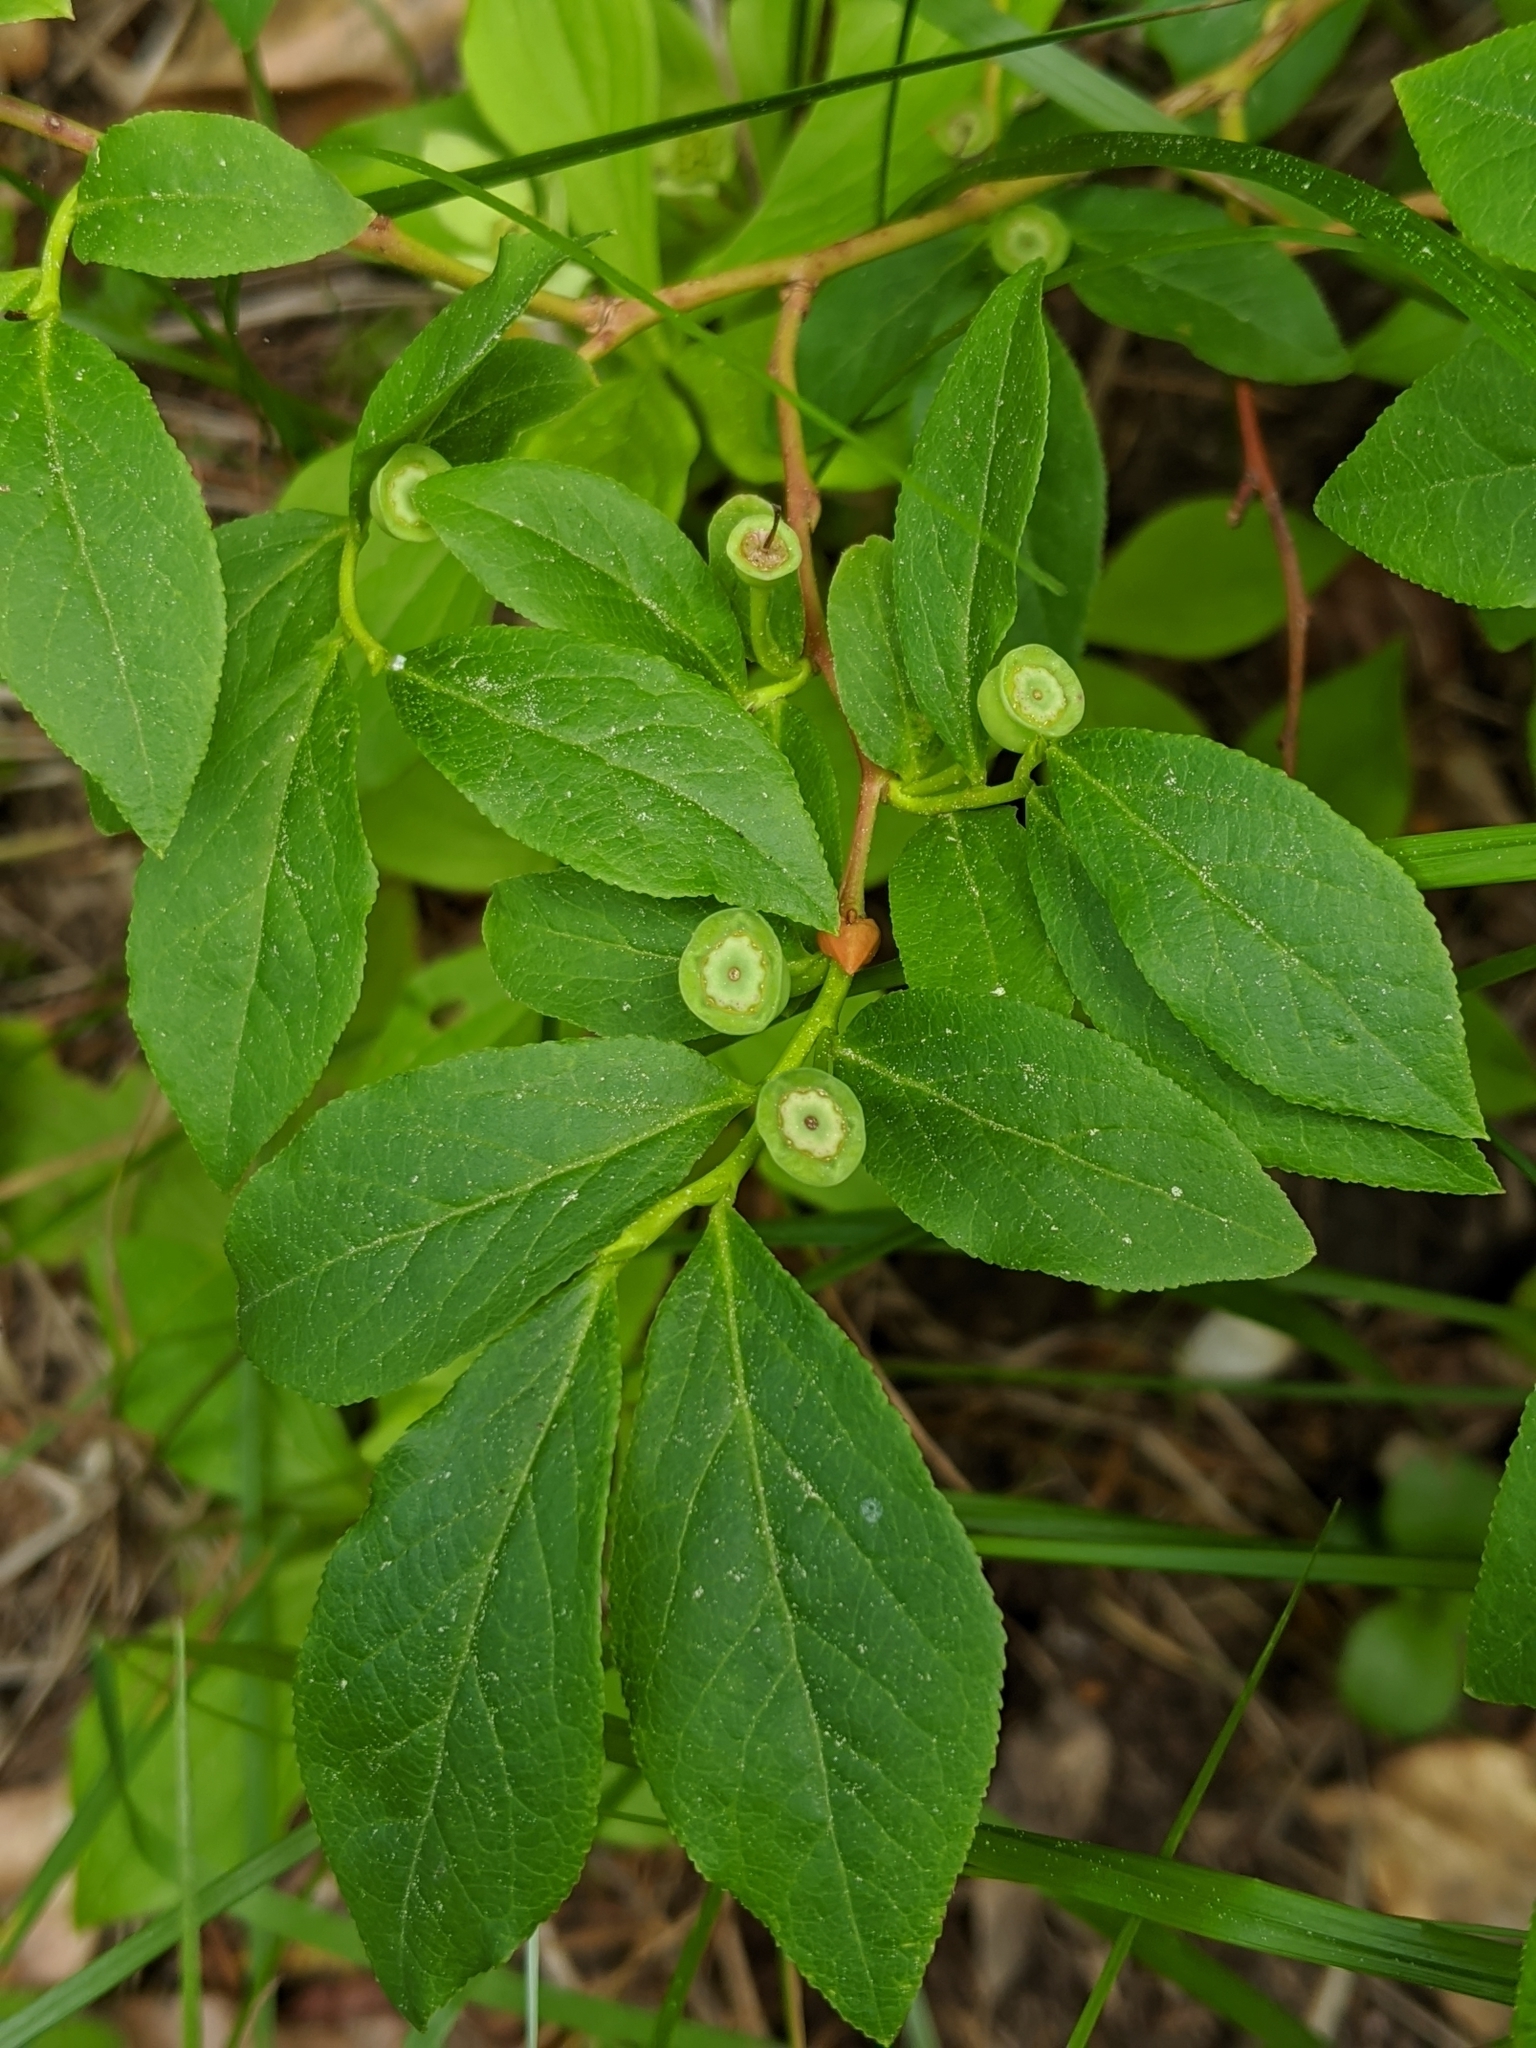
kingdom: Plantae
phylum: Tracheophyta
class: Magnoliopsida
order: Ericales
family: Ericaceae
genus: Vaccinium
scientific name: Vaccinium membranaceum
